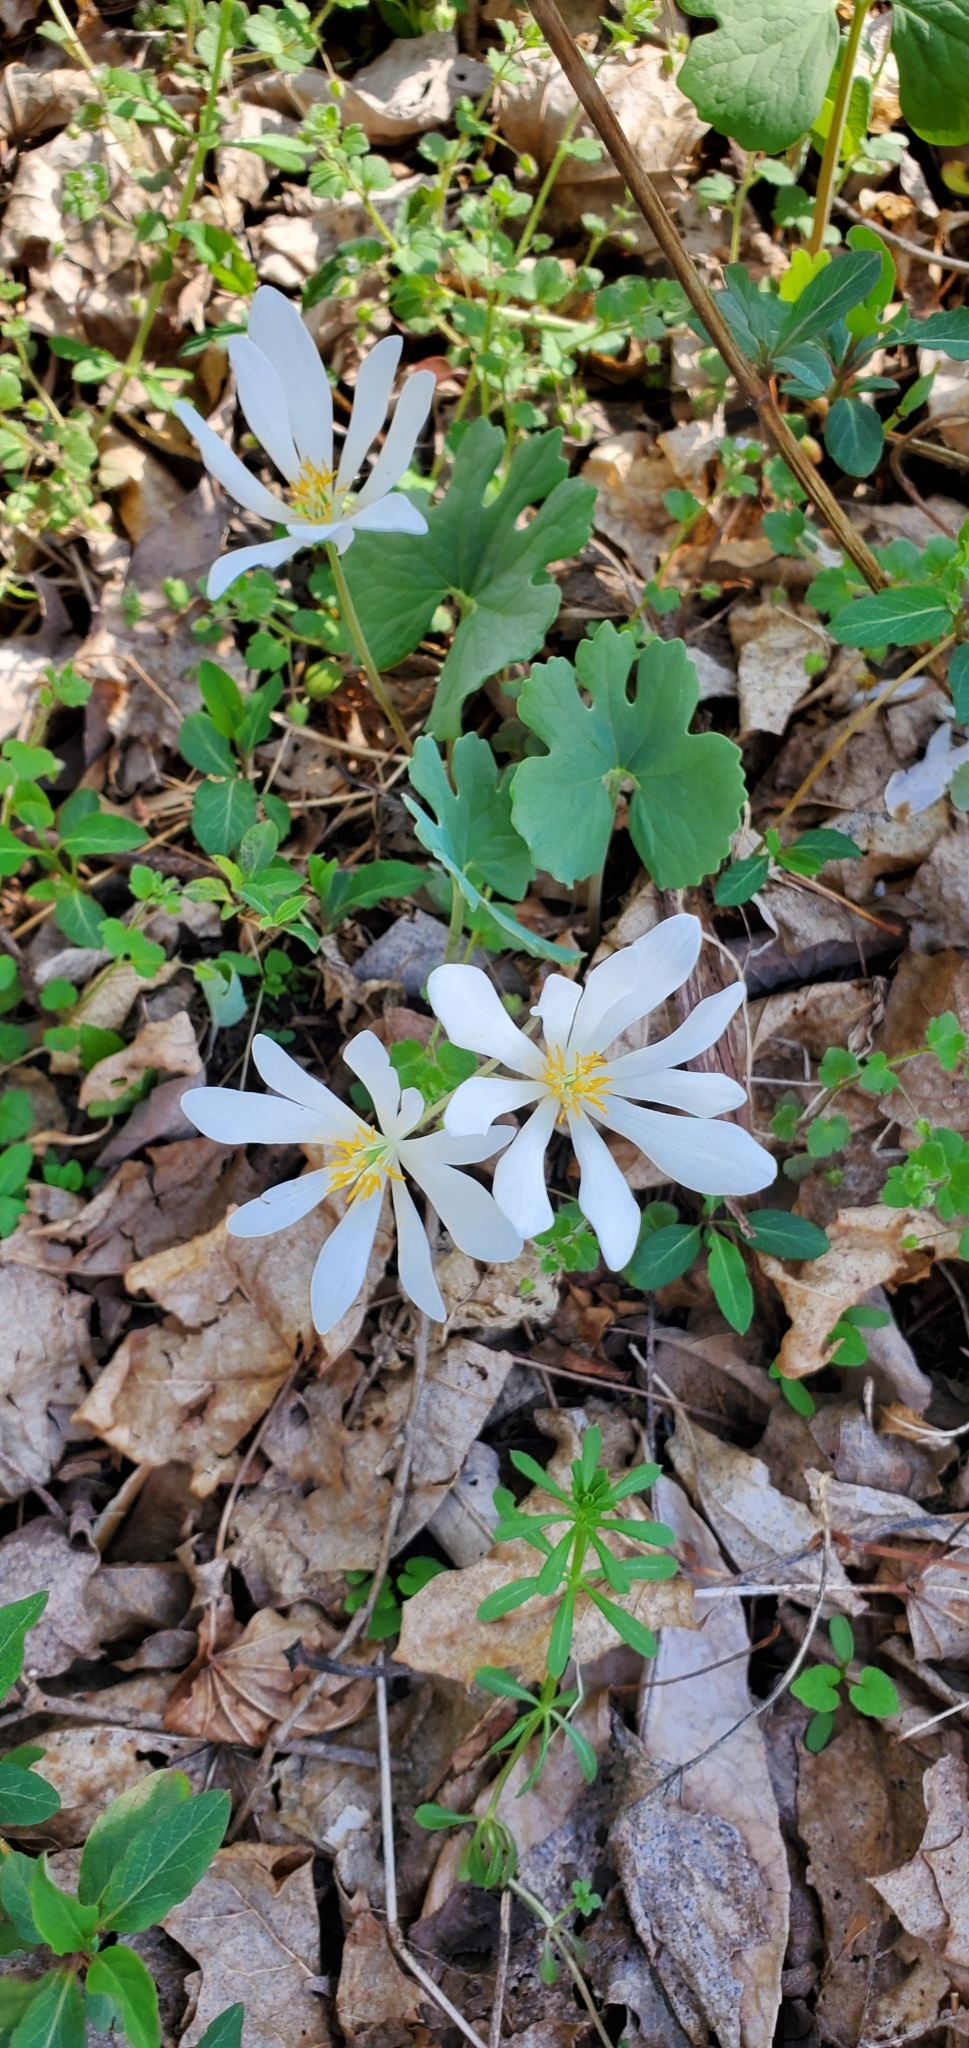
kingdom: Plantae
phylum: Tracheophyta
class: Magnoliopsida
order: Ranunculales
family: Papaveraceae
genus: Sanguinaria
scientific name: Sanguinaria canadensis
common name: Bloodroot
